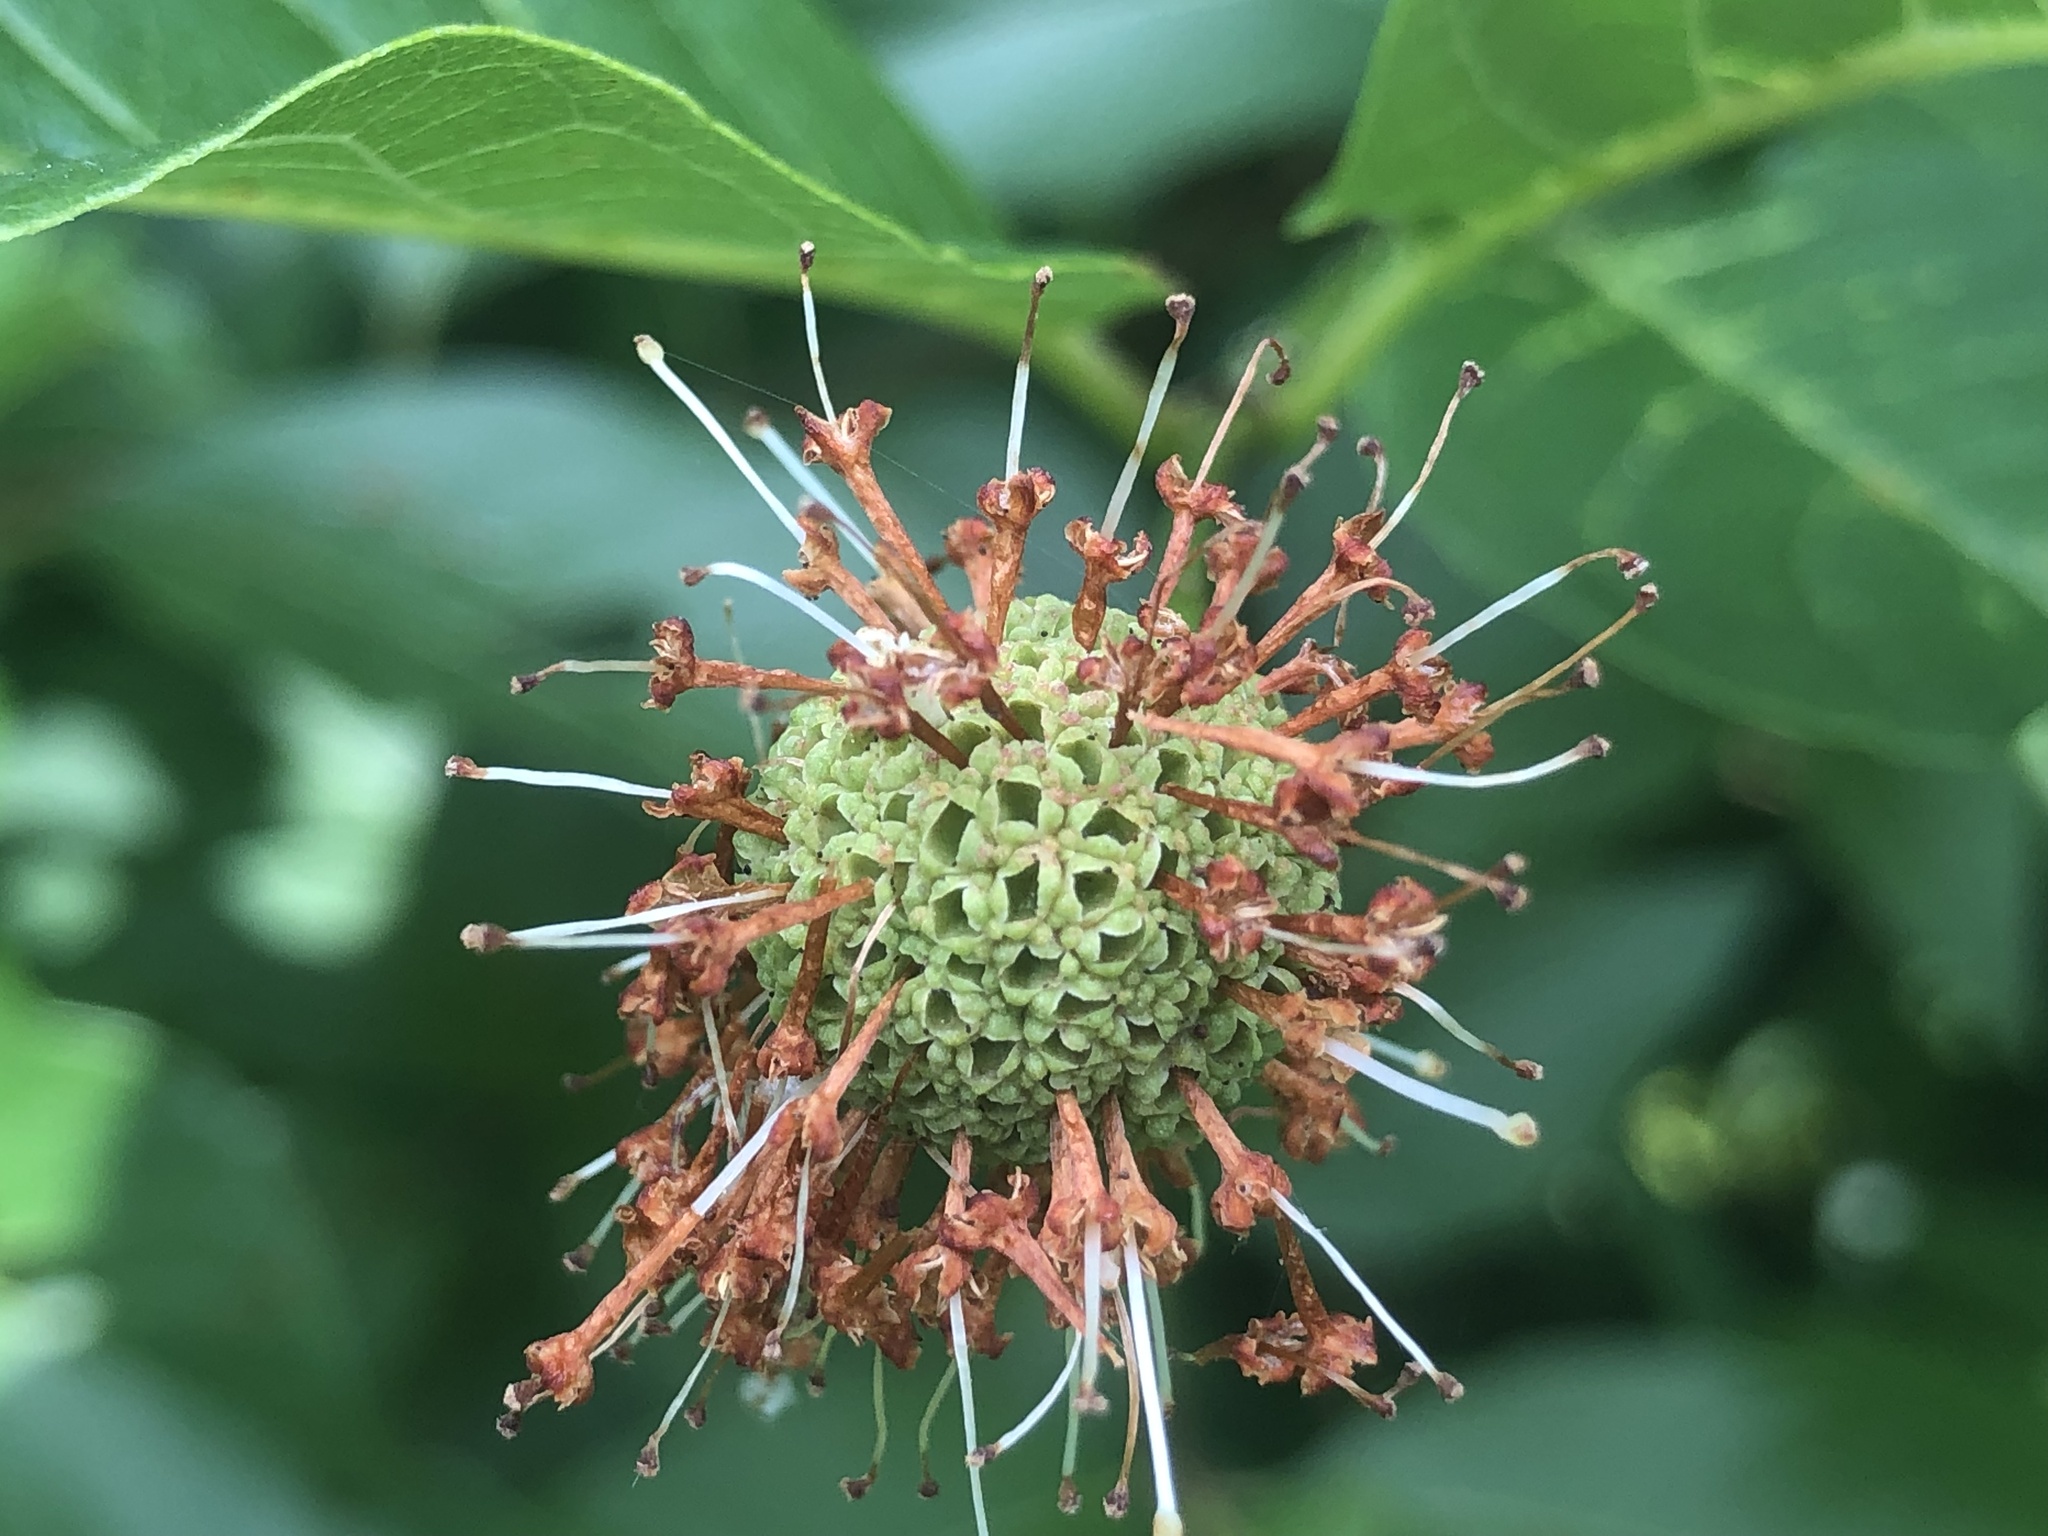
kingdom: Plantae
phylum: Tracheophyta
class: Magnoliopsida
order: Gentianales
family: Rubiaceae
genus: Cephalanthus
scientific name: Cephalanthus occidentalis
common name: Button-willow
